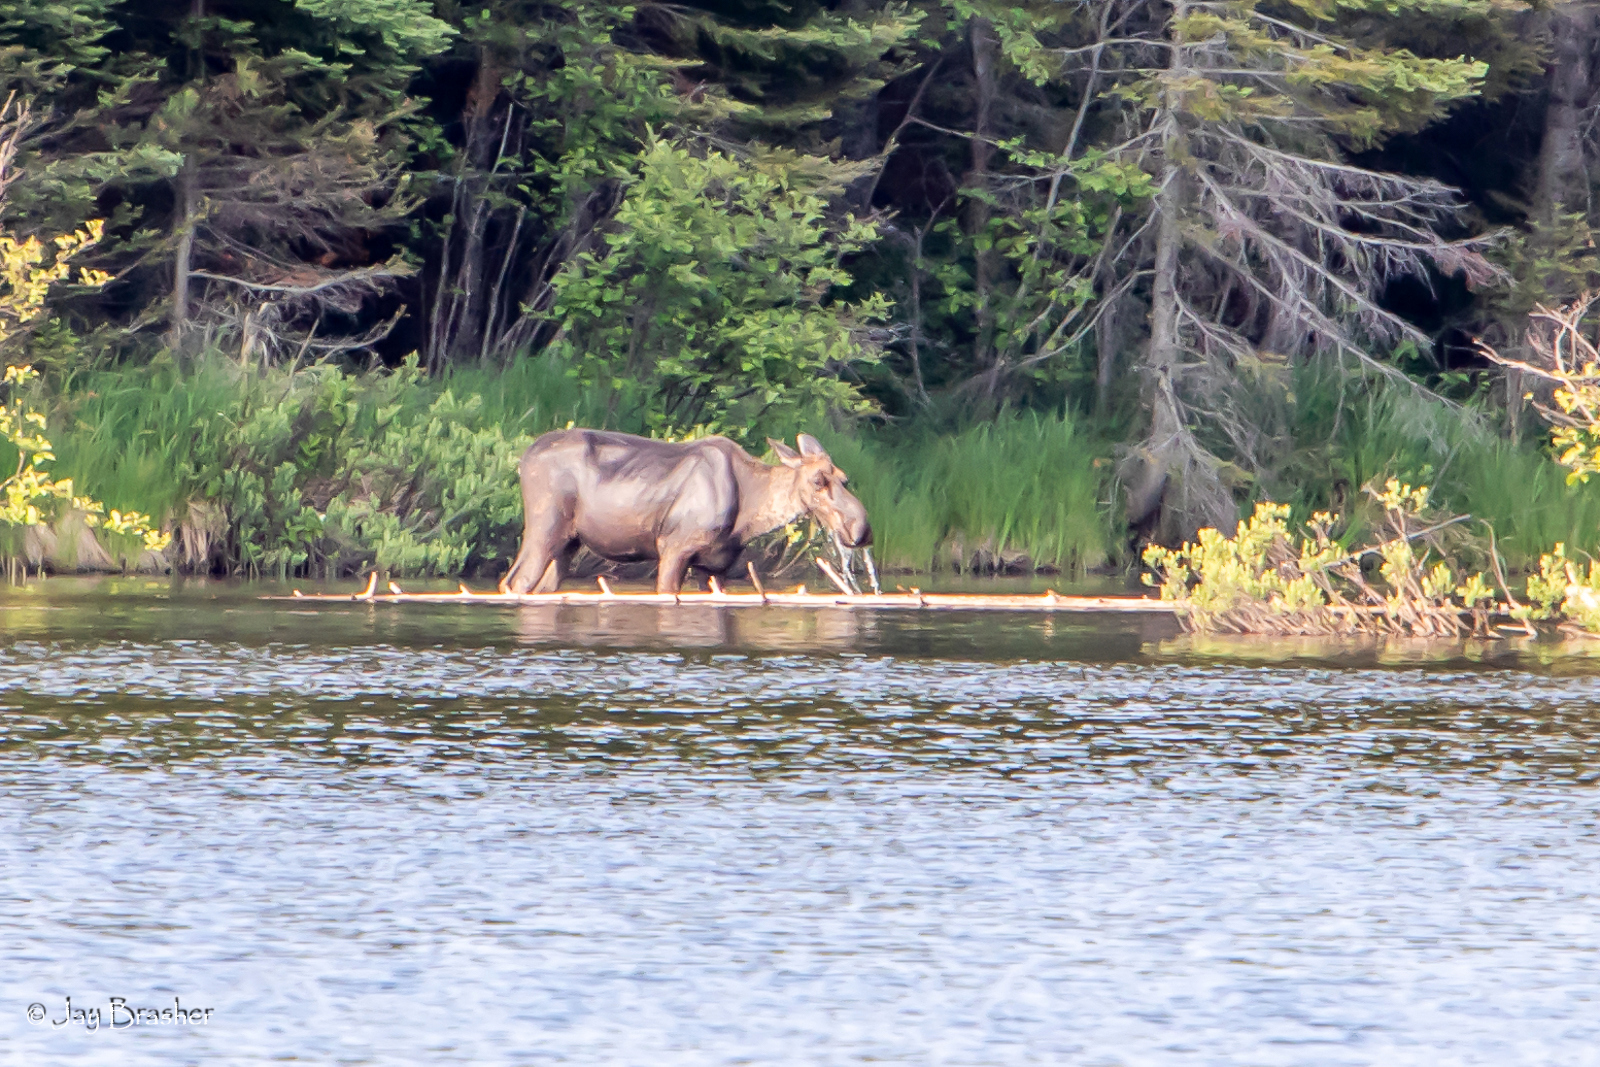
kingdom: Animalia
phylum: Chordata
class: Mammalia
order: Artiodactyla
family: Cervidae
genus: Alces
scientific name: Alces americanus
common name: Moose
